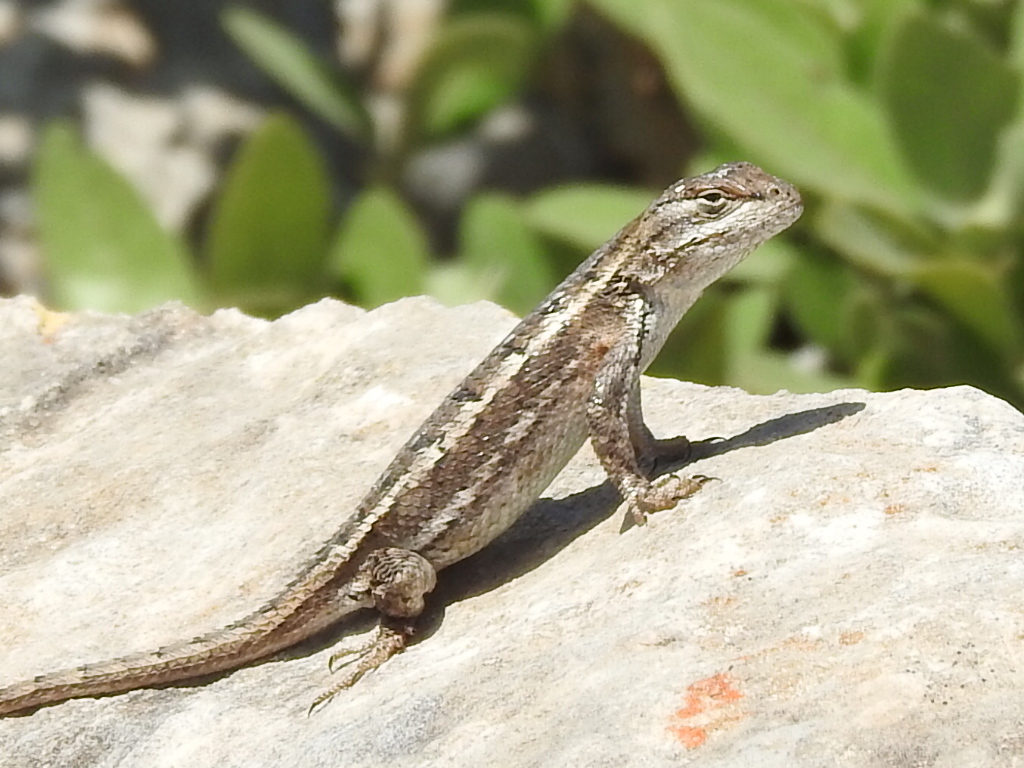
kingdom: Animalia
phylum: Chordata
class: Squamata
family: Phrynosomatidae
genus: Sceloporus
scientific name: Sceloporus consobrinus
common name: Southern prairie lizard
